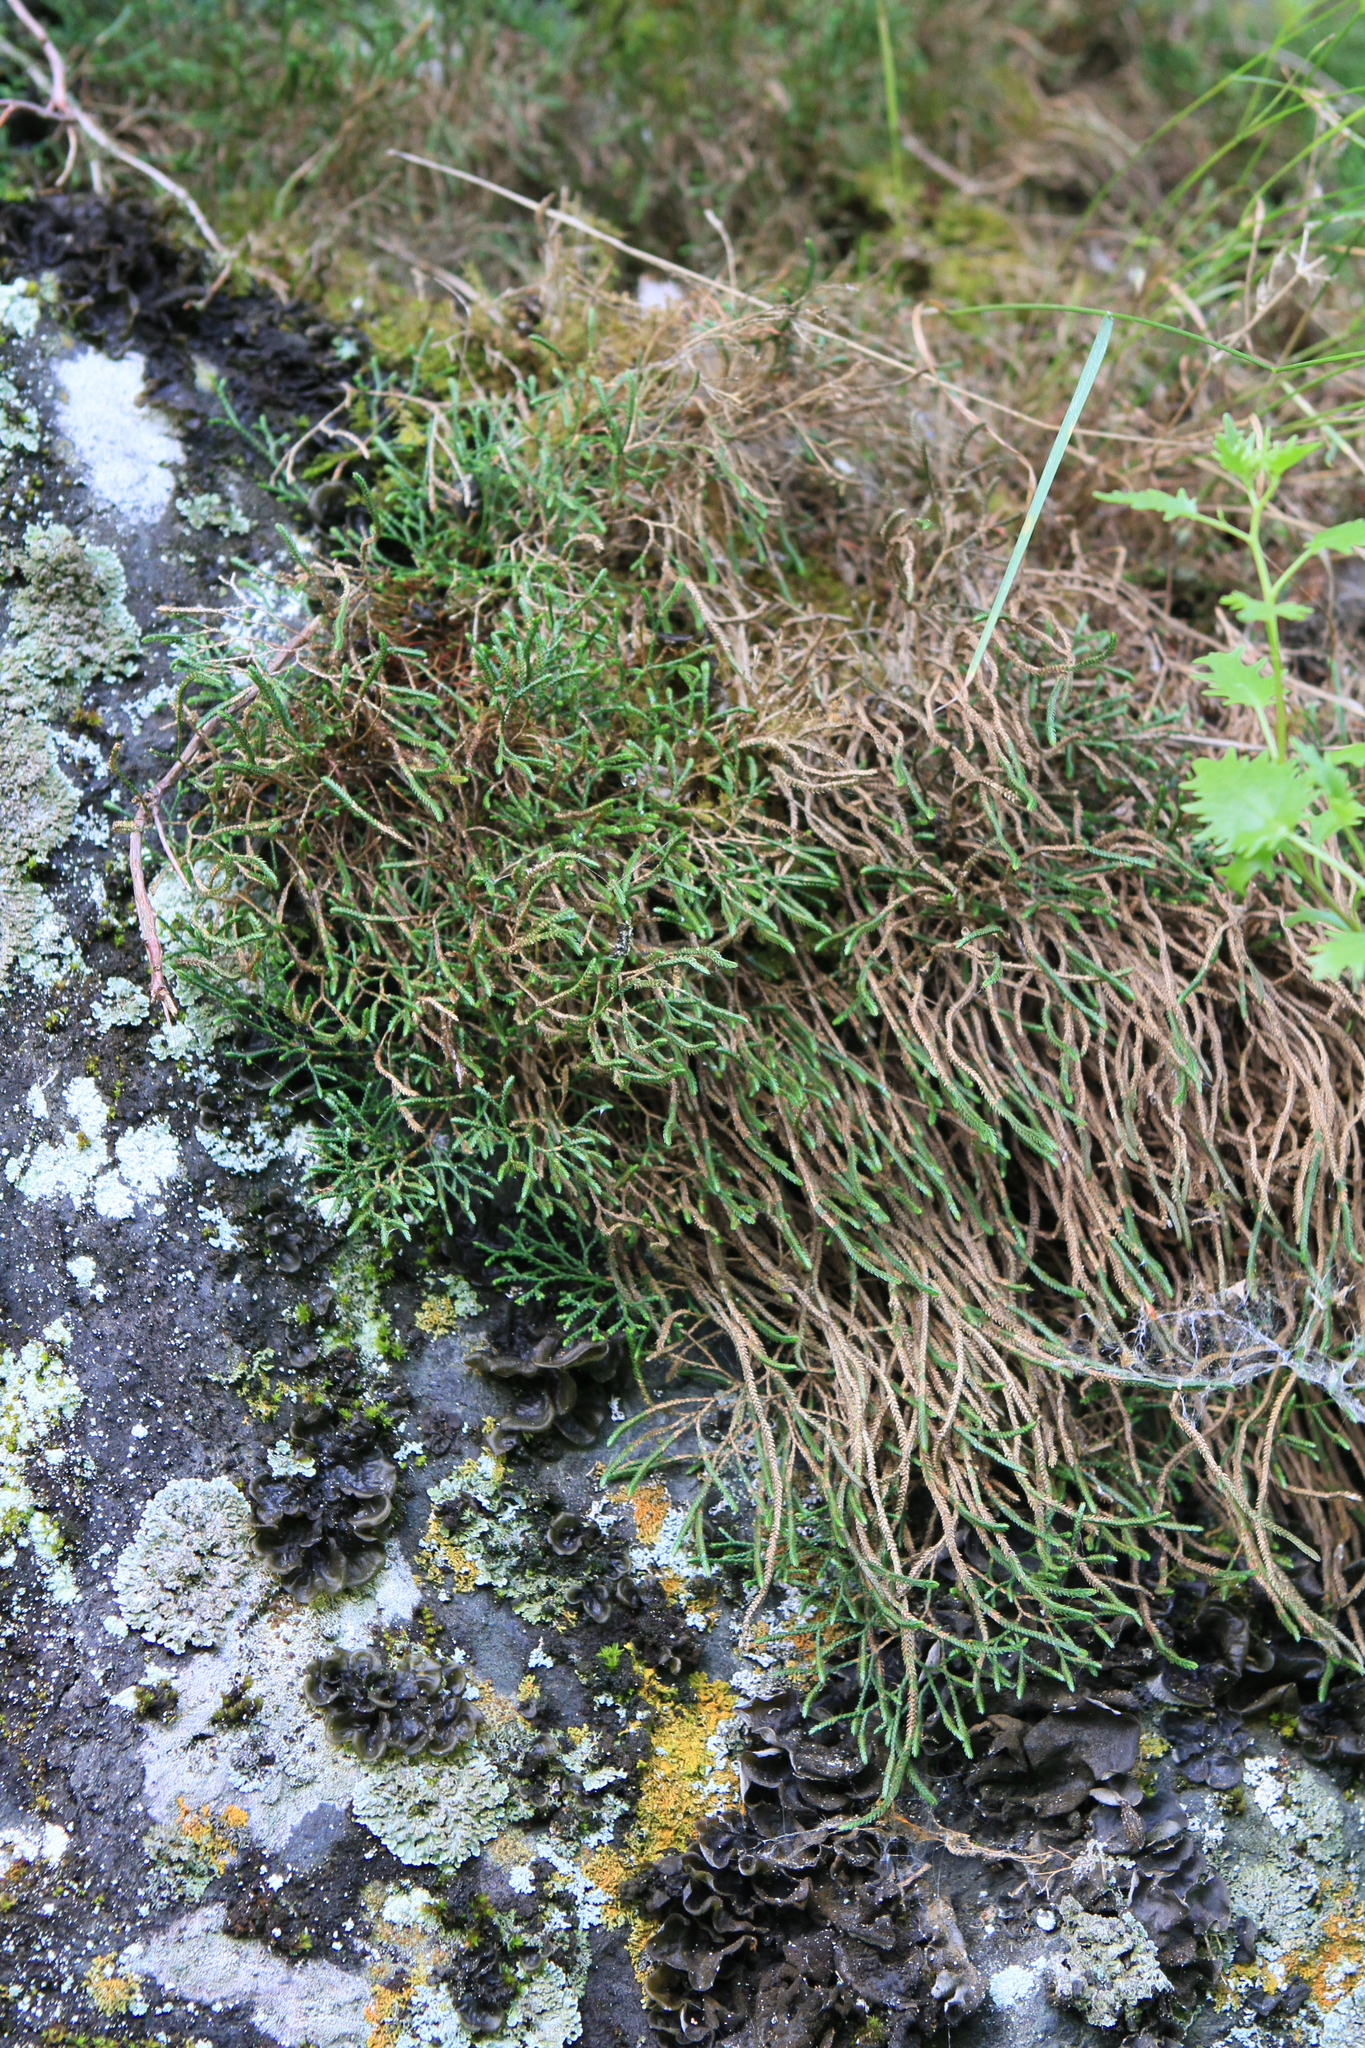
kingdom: Plantae
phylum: Tracheophyta
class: Lycopodiopsida
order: Selaginellales
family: Selaginellaceae
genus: Selaginella
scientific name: Selaginella sanguinolenta
